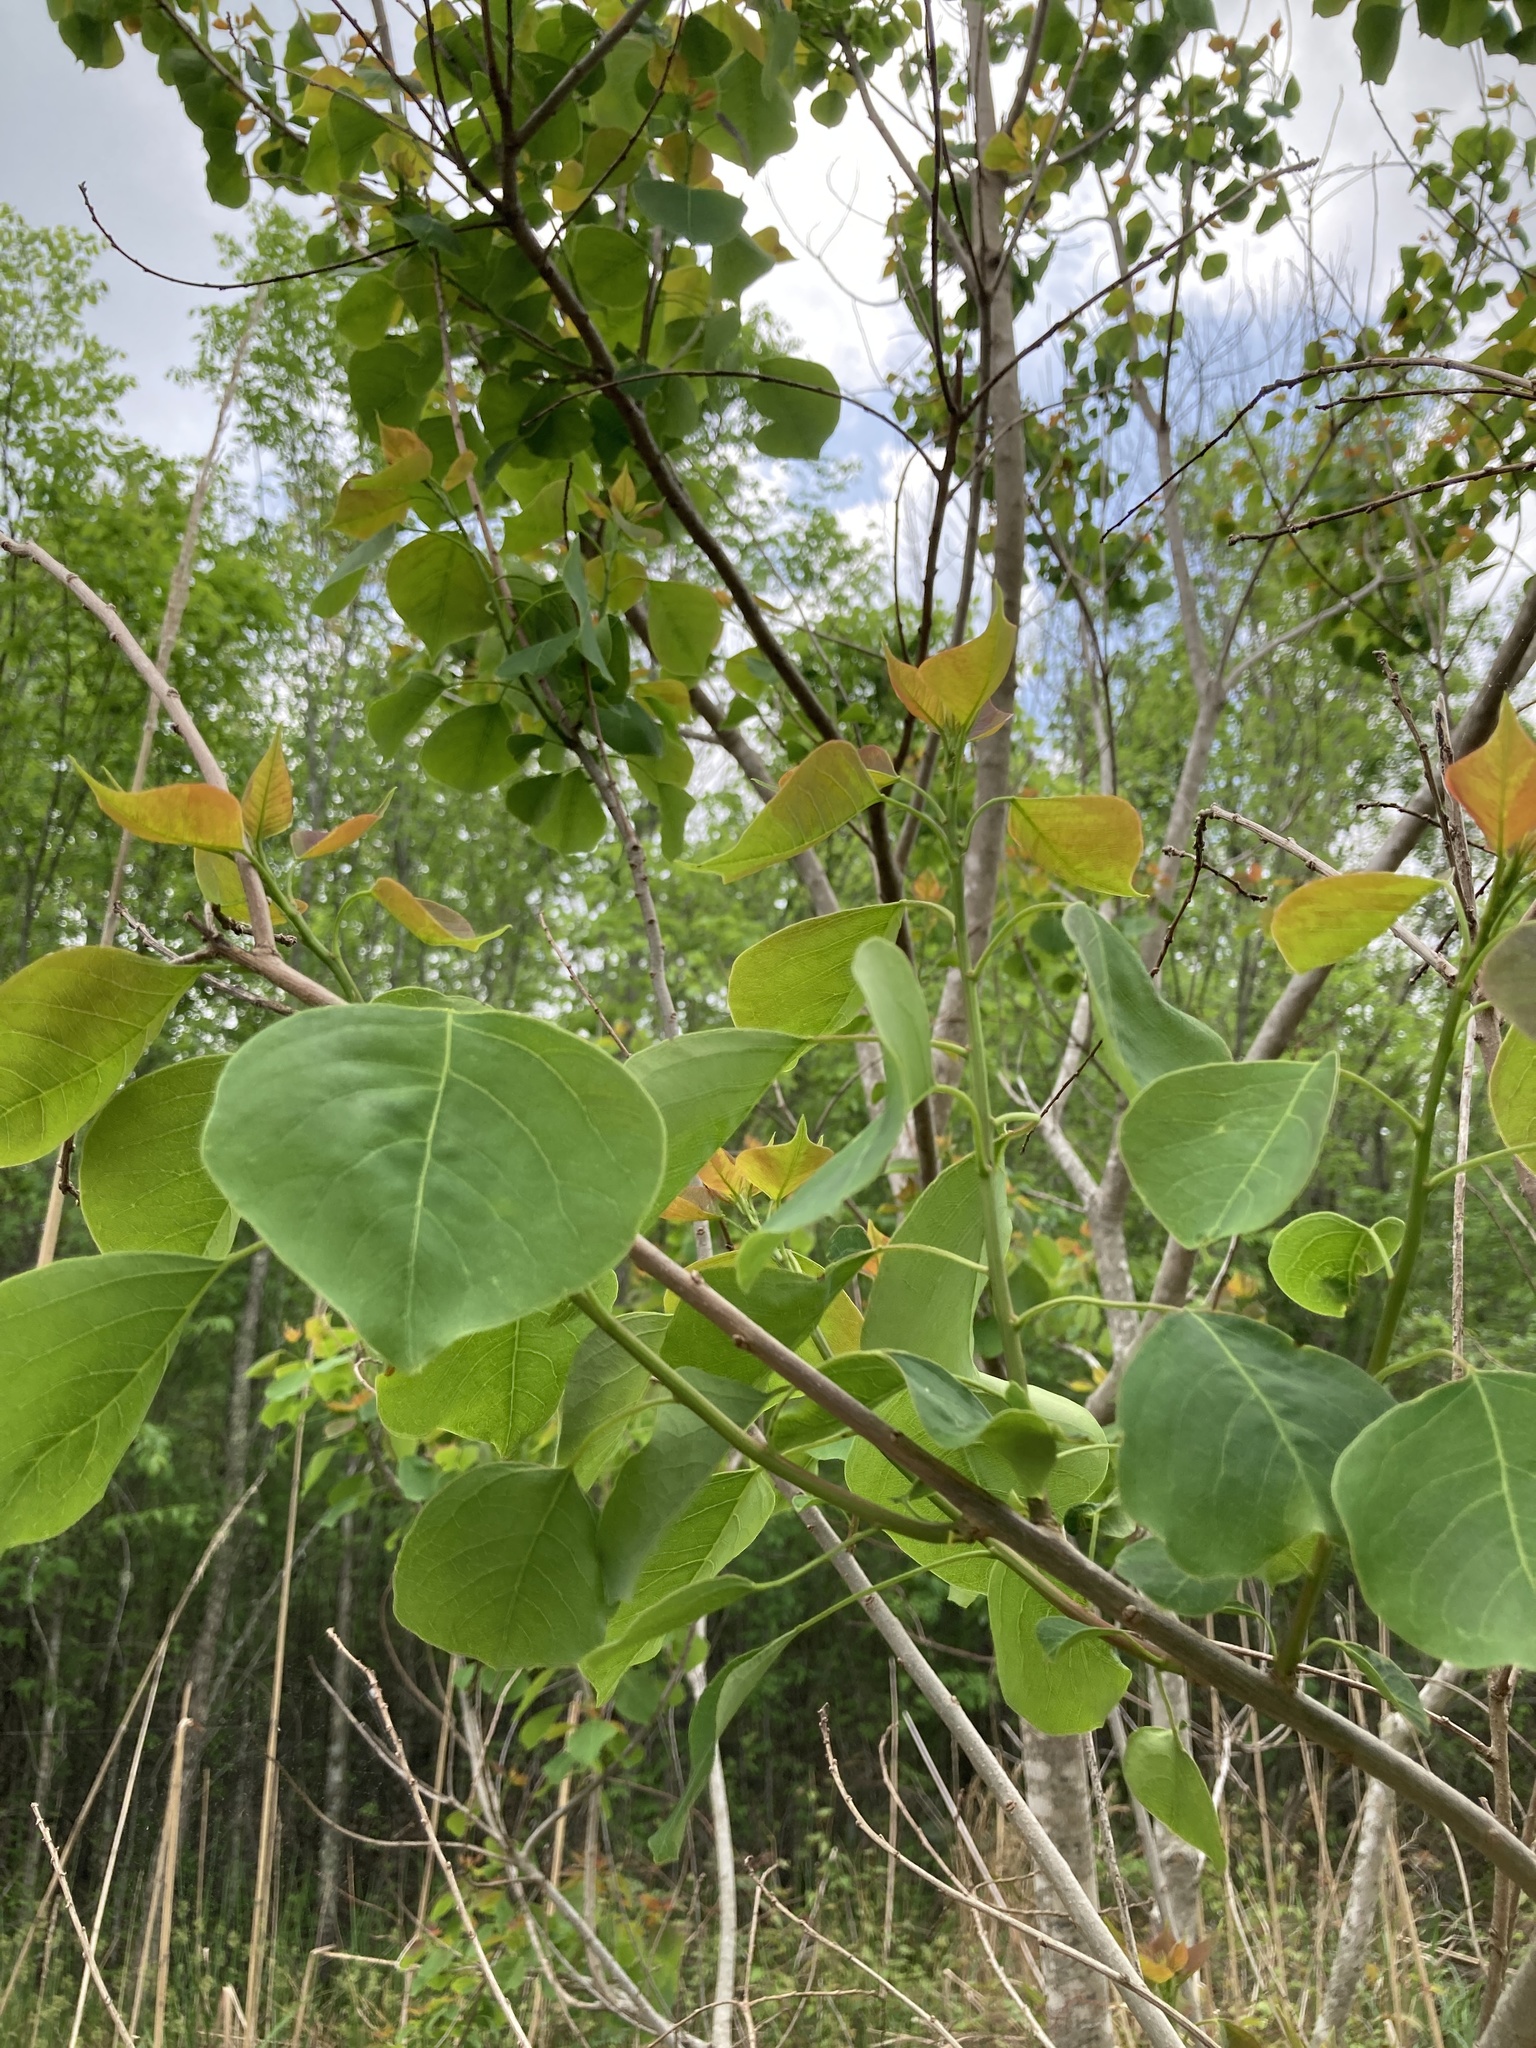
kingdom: Plantae
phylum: Tracheophyta
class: Magnoliopsida
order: Malpighiales
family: Euphorbiaceae
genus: Triadica
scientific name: Triadica sebifera
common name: Chinese tallow
